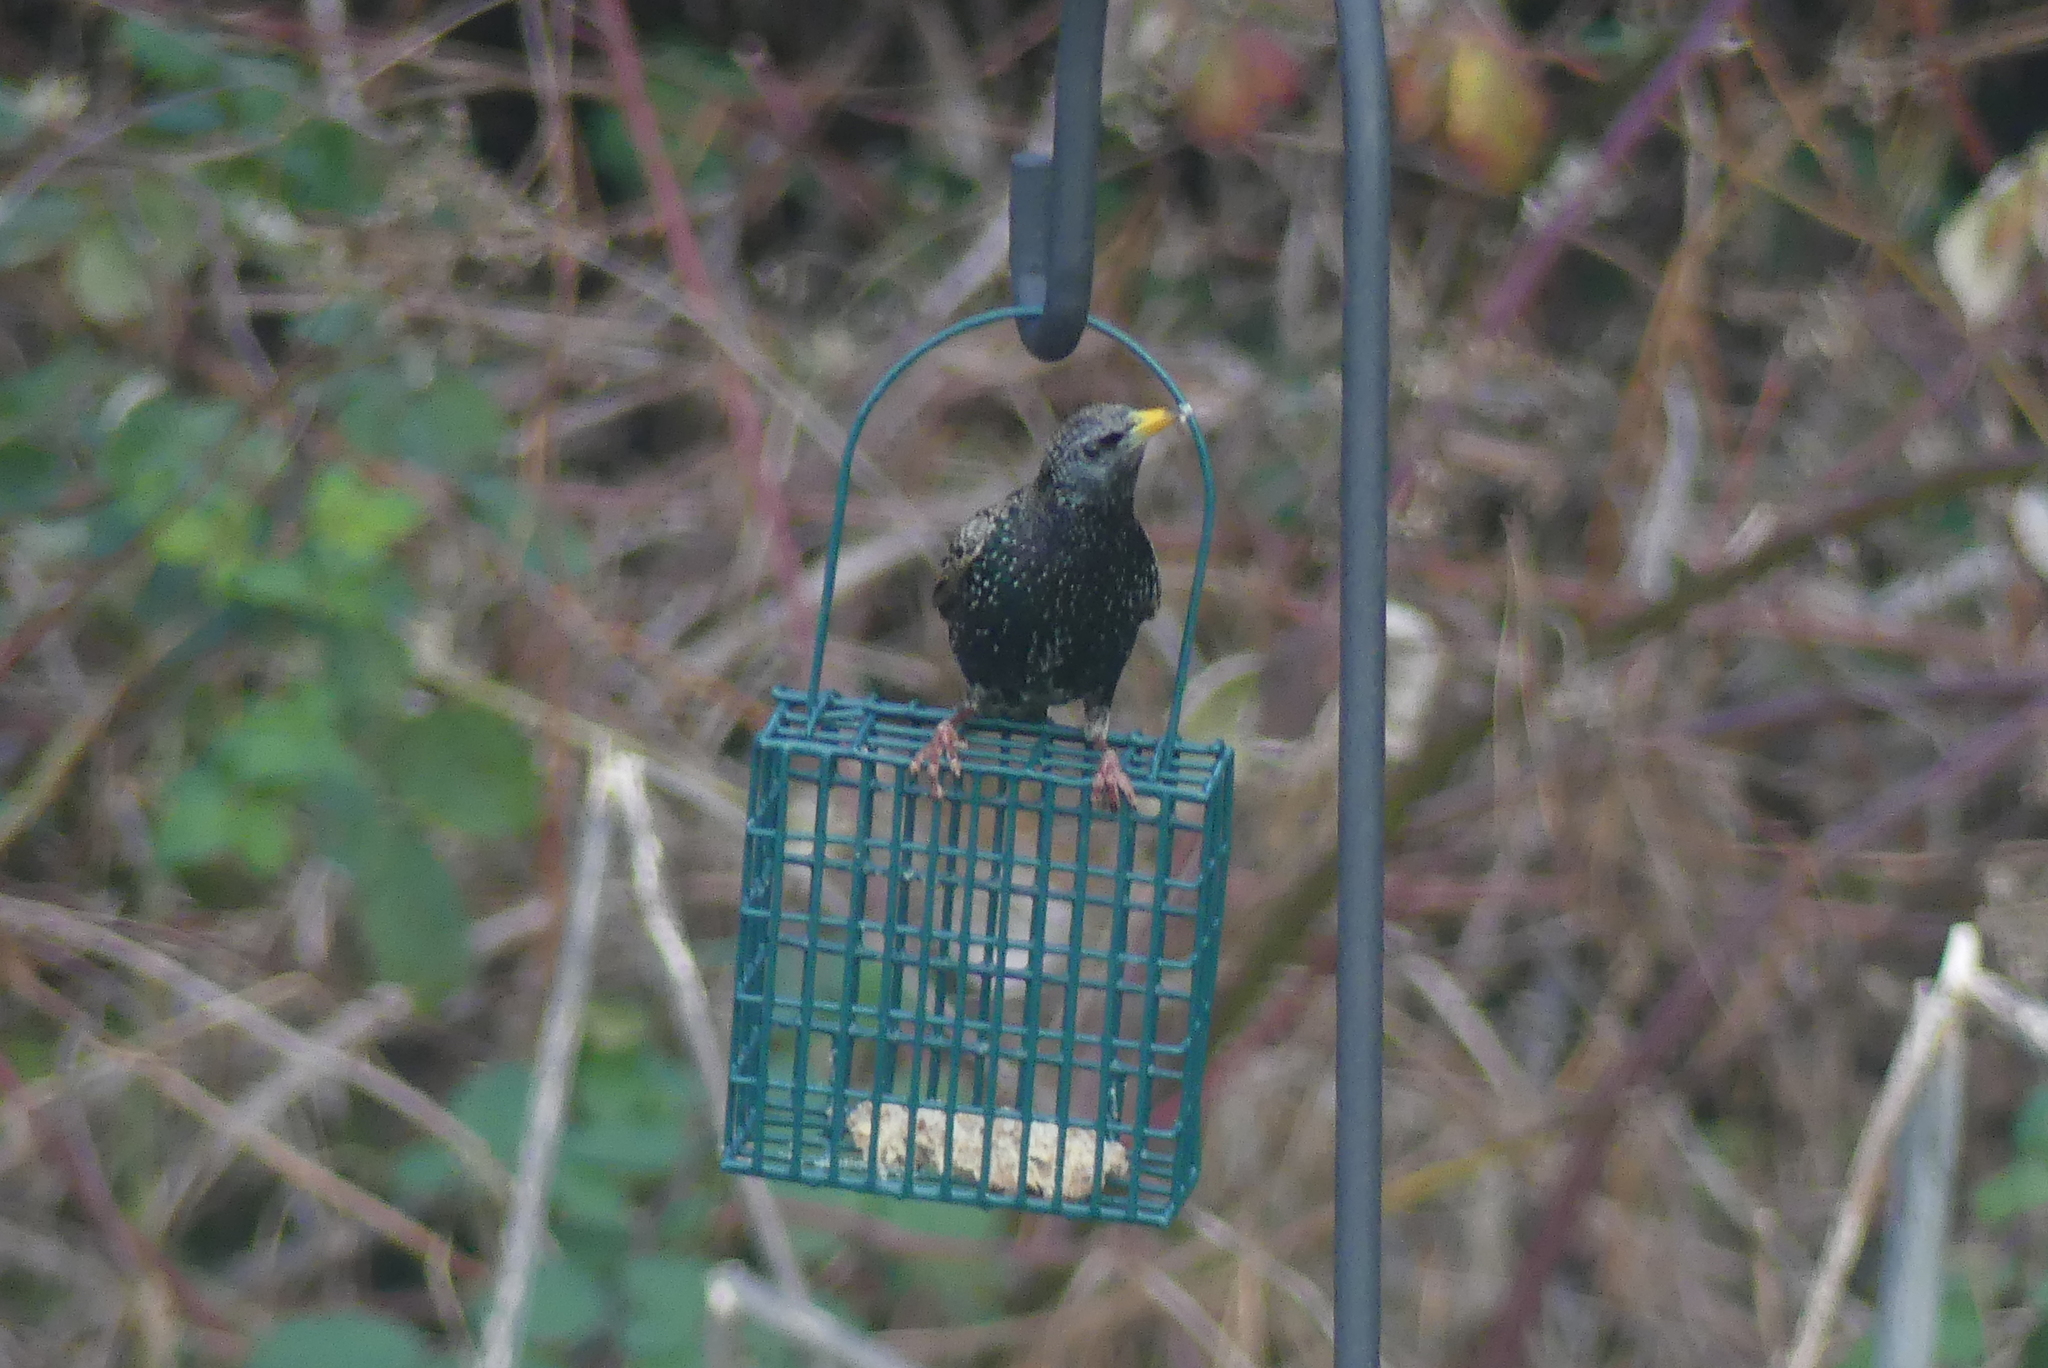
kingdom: Animalia
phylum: Chordata
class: Aves
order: Passeriformes
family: Sturnidae
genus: Sturnus
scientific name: Sturnus vulgaris
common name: Common starling
